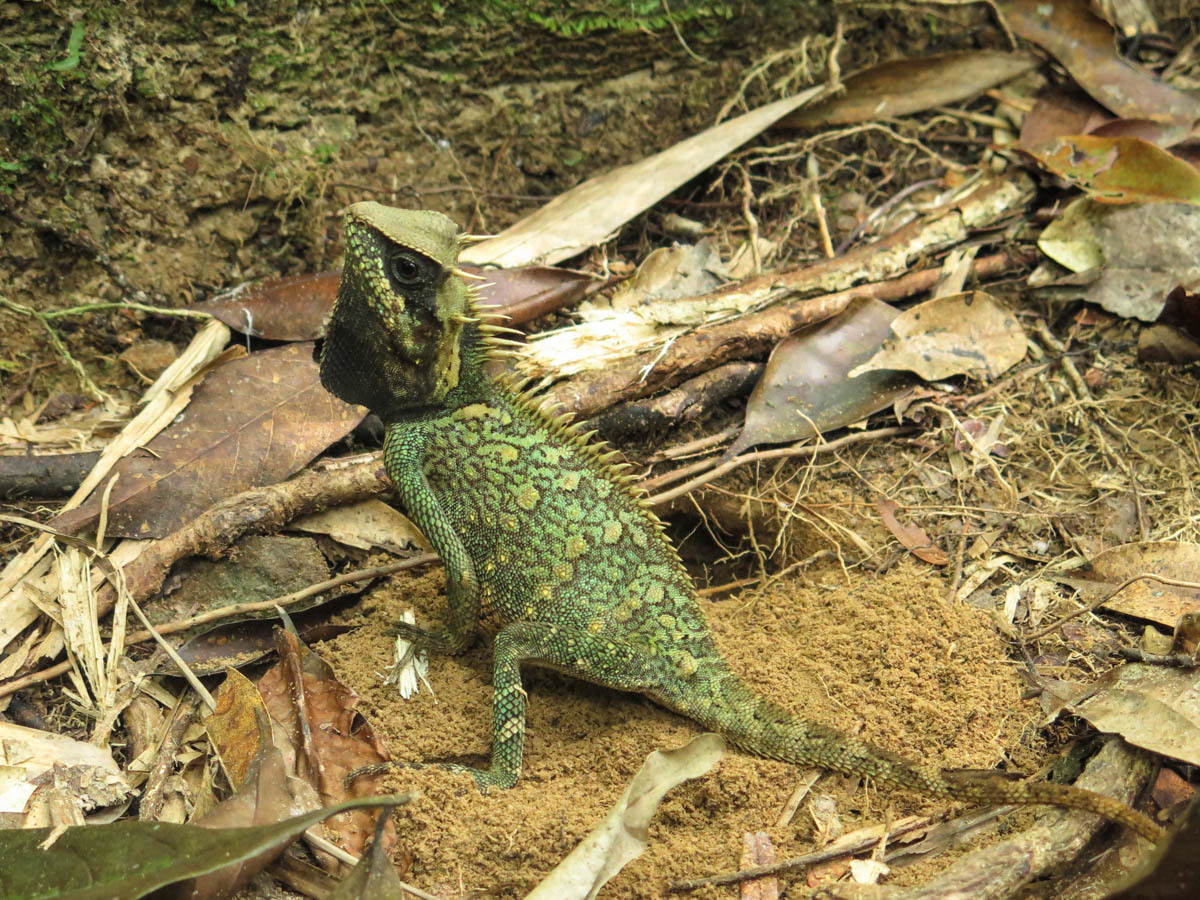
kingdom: Animalia
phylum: Chordata
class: Squamata
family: Agamidae
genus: Acanthosaura
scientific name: Acanthosaura cardamomensis
